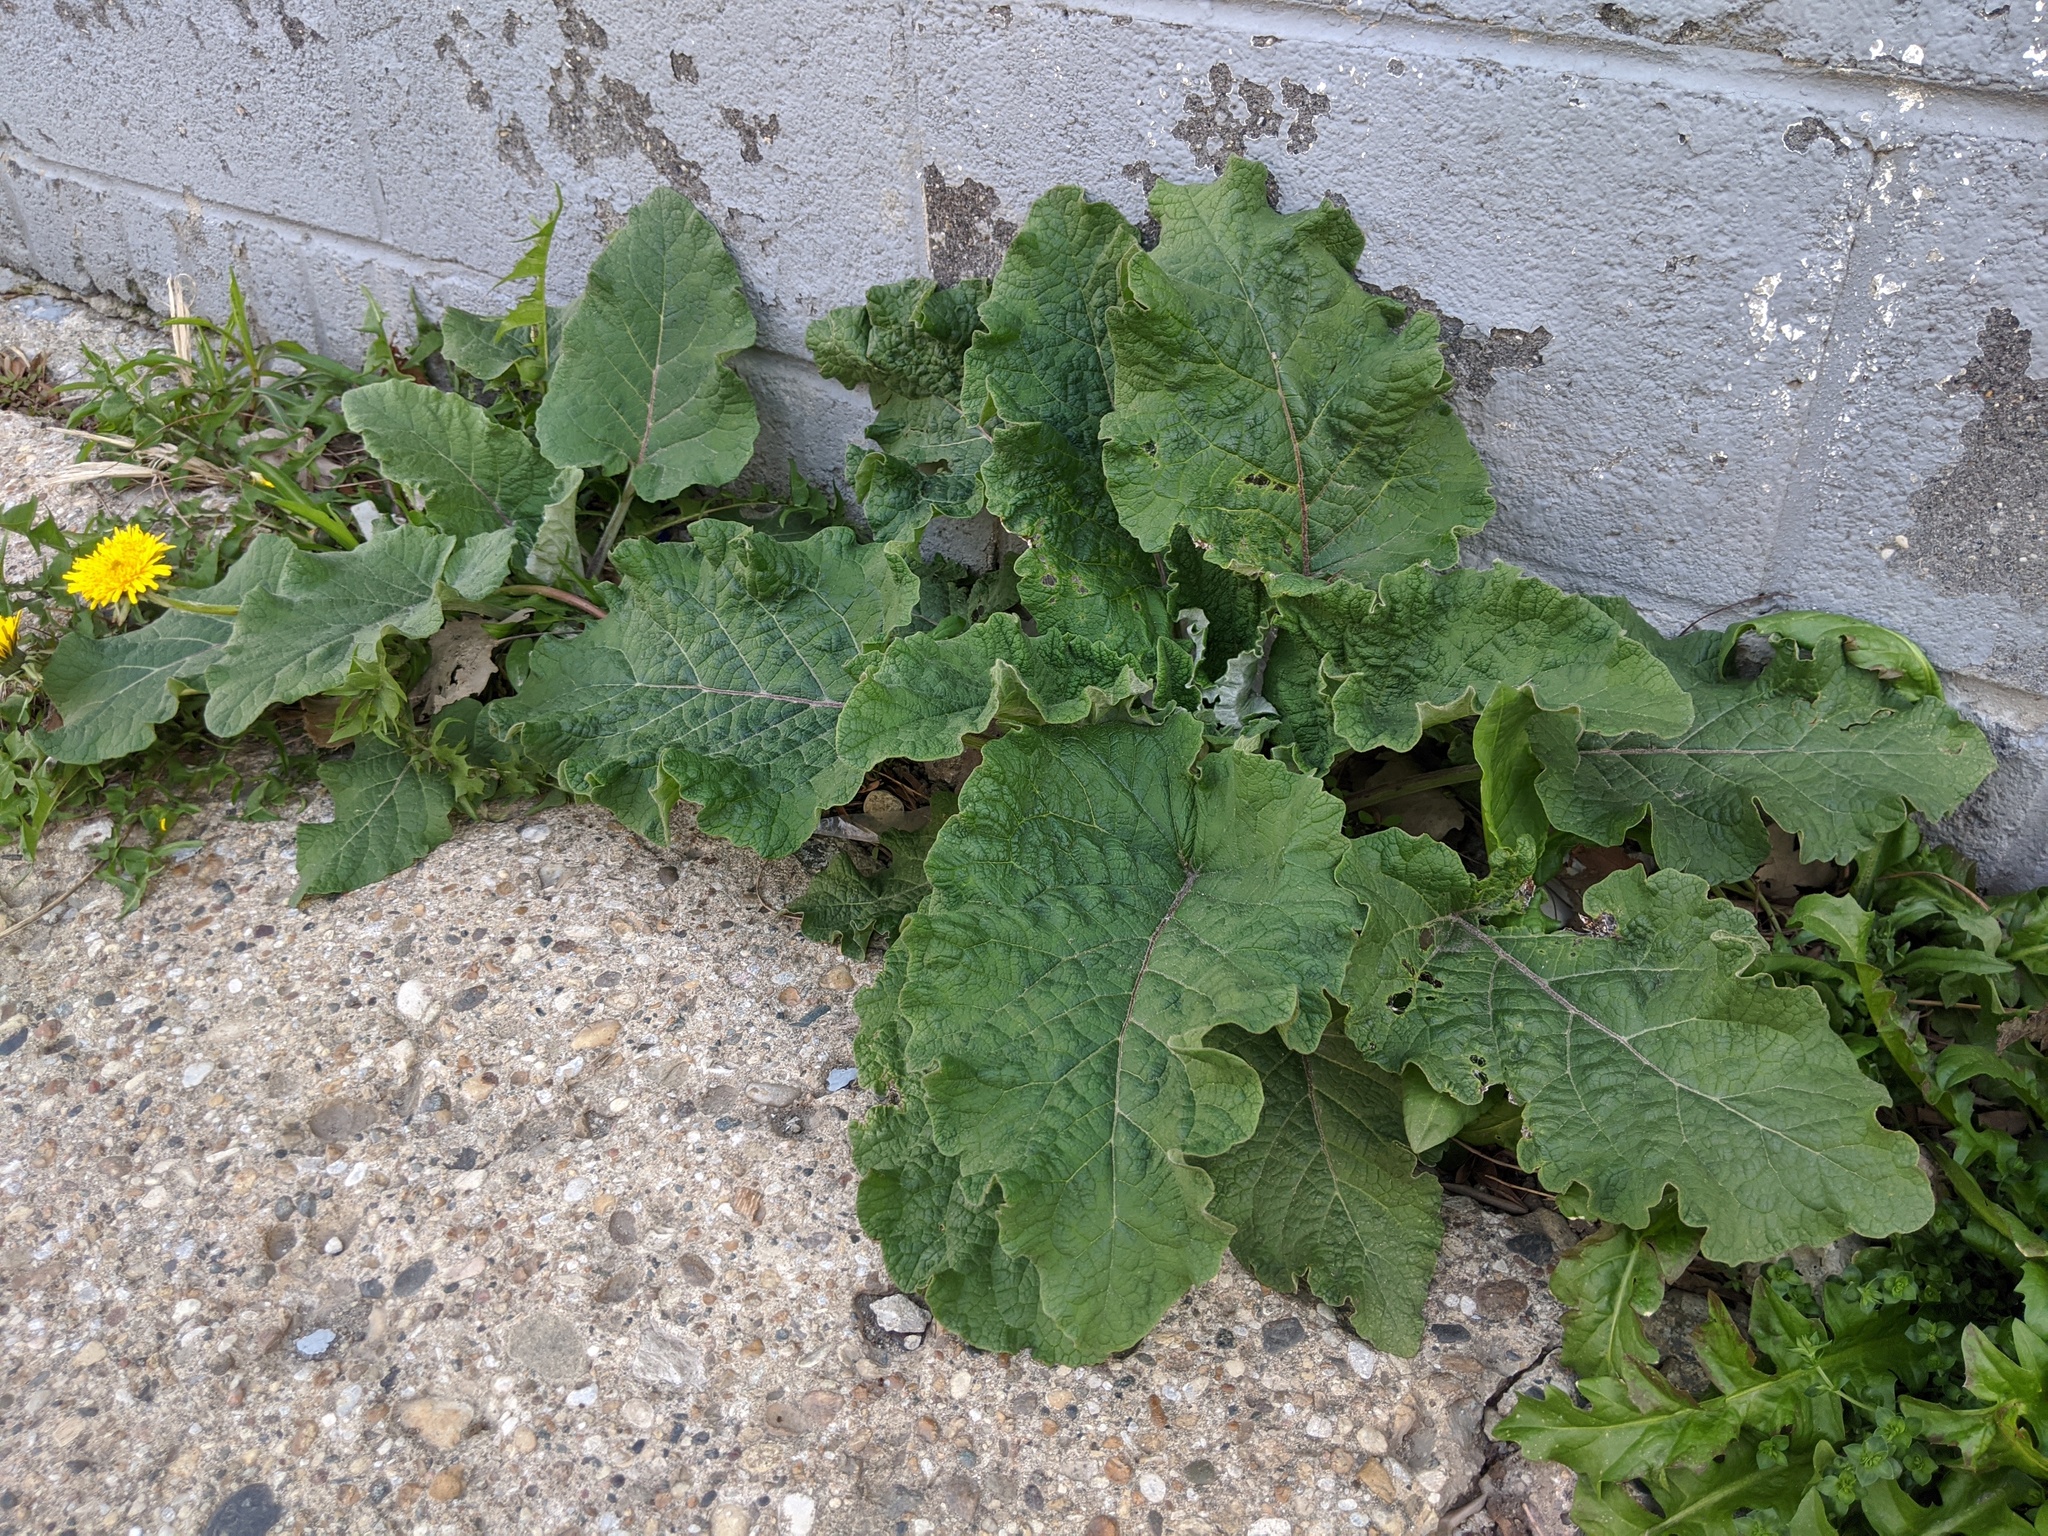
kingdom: Plantae
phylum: Tracheophyta
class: Magnoliopsida
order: Asterales
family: Asteraceae
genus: Arctium
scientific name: Arctium minus
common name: Lesser burdock
